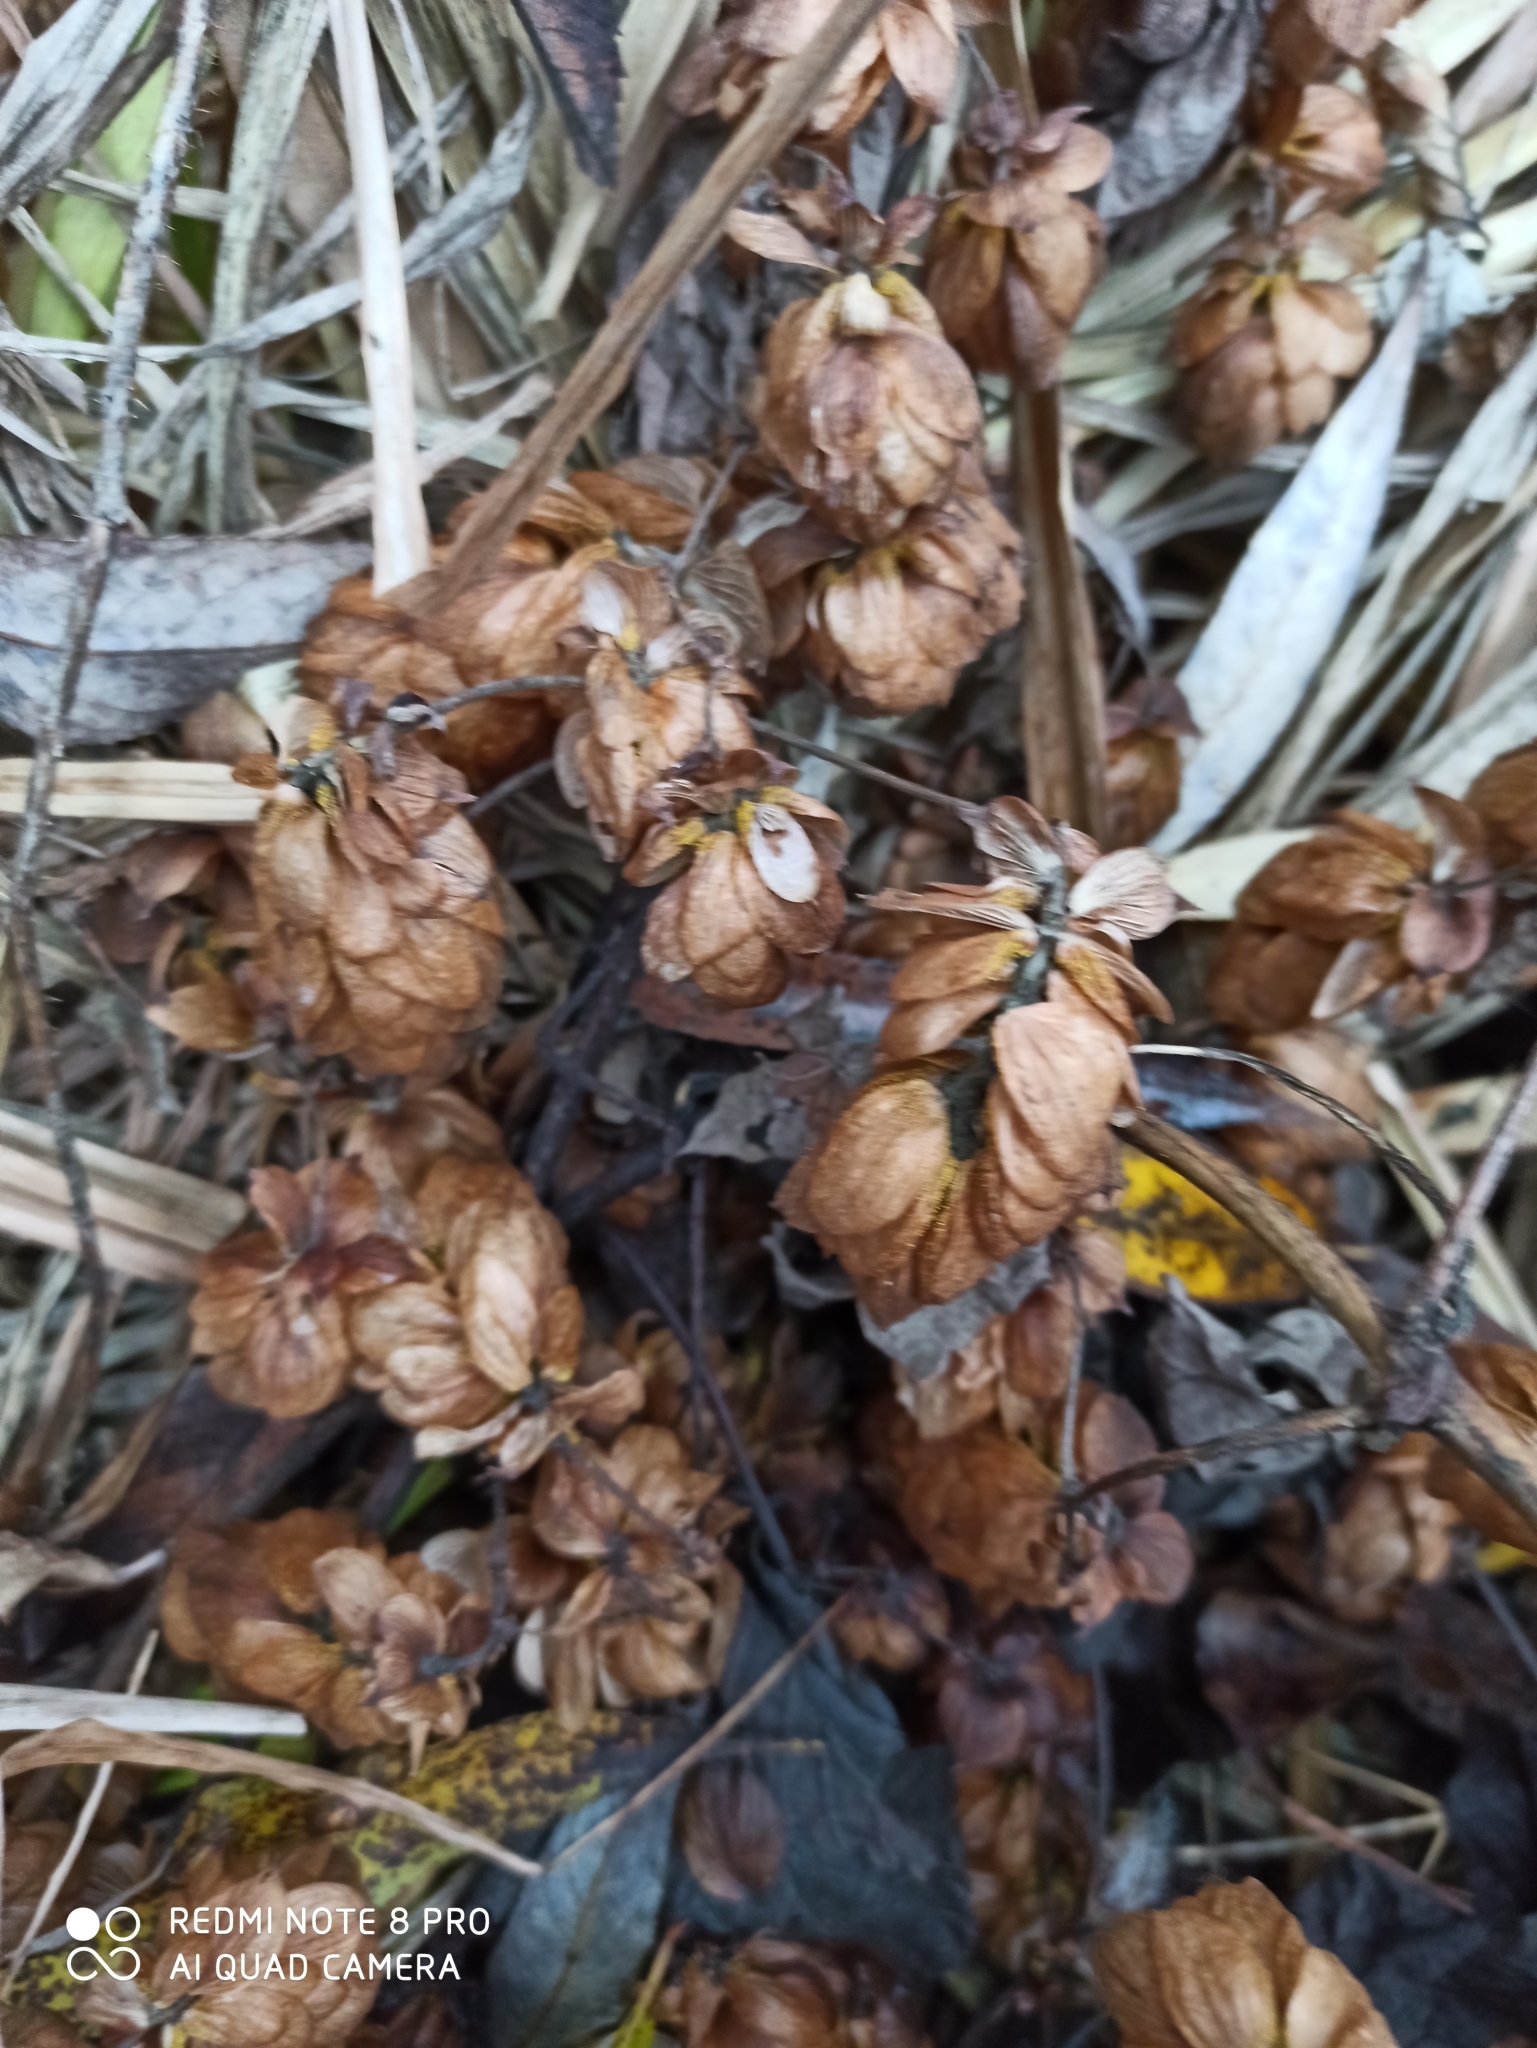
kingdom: Plantae
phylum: Tracheophyta
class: Magnoliopsida
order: Rosales
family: Cannabaceae
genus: Humulus
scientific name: Humulus lupulus
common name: Hop
